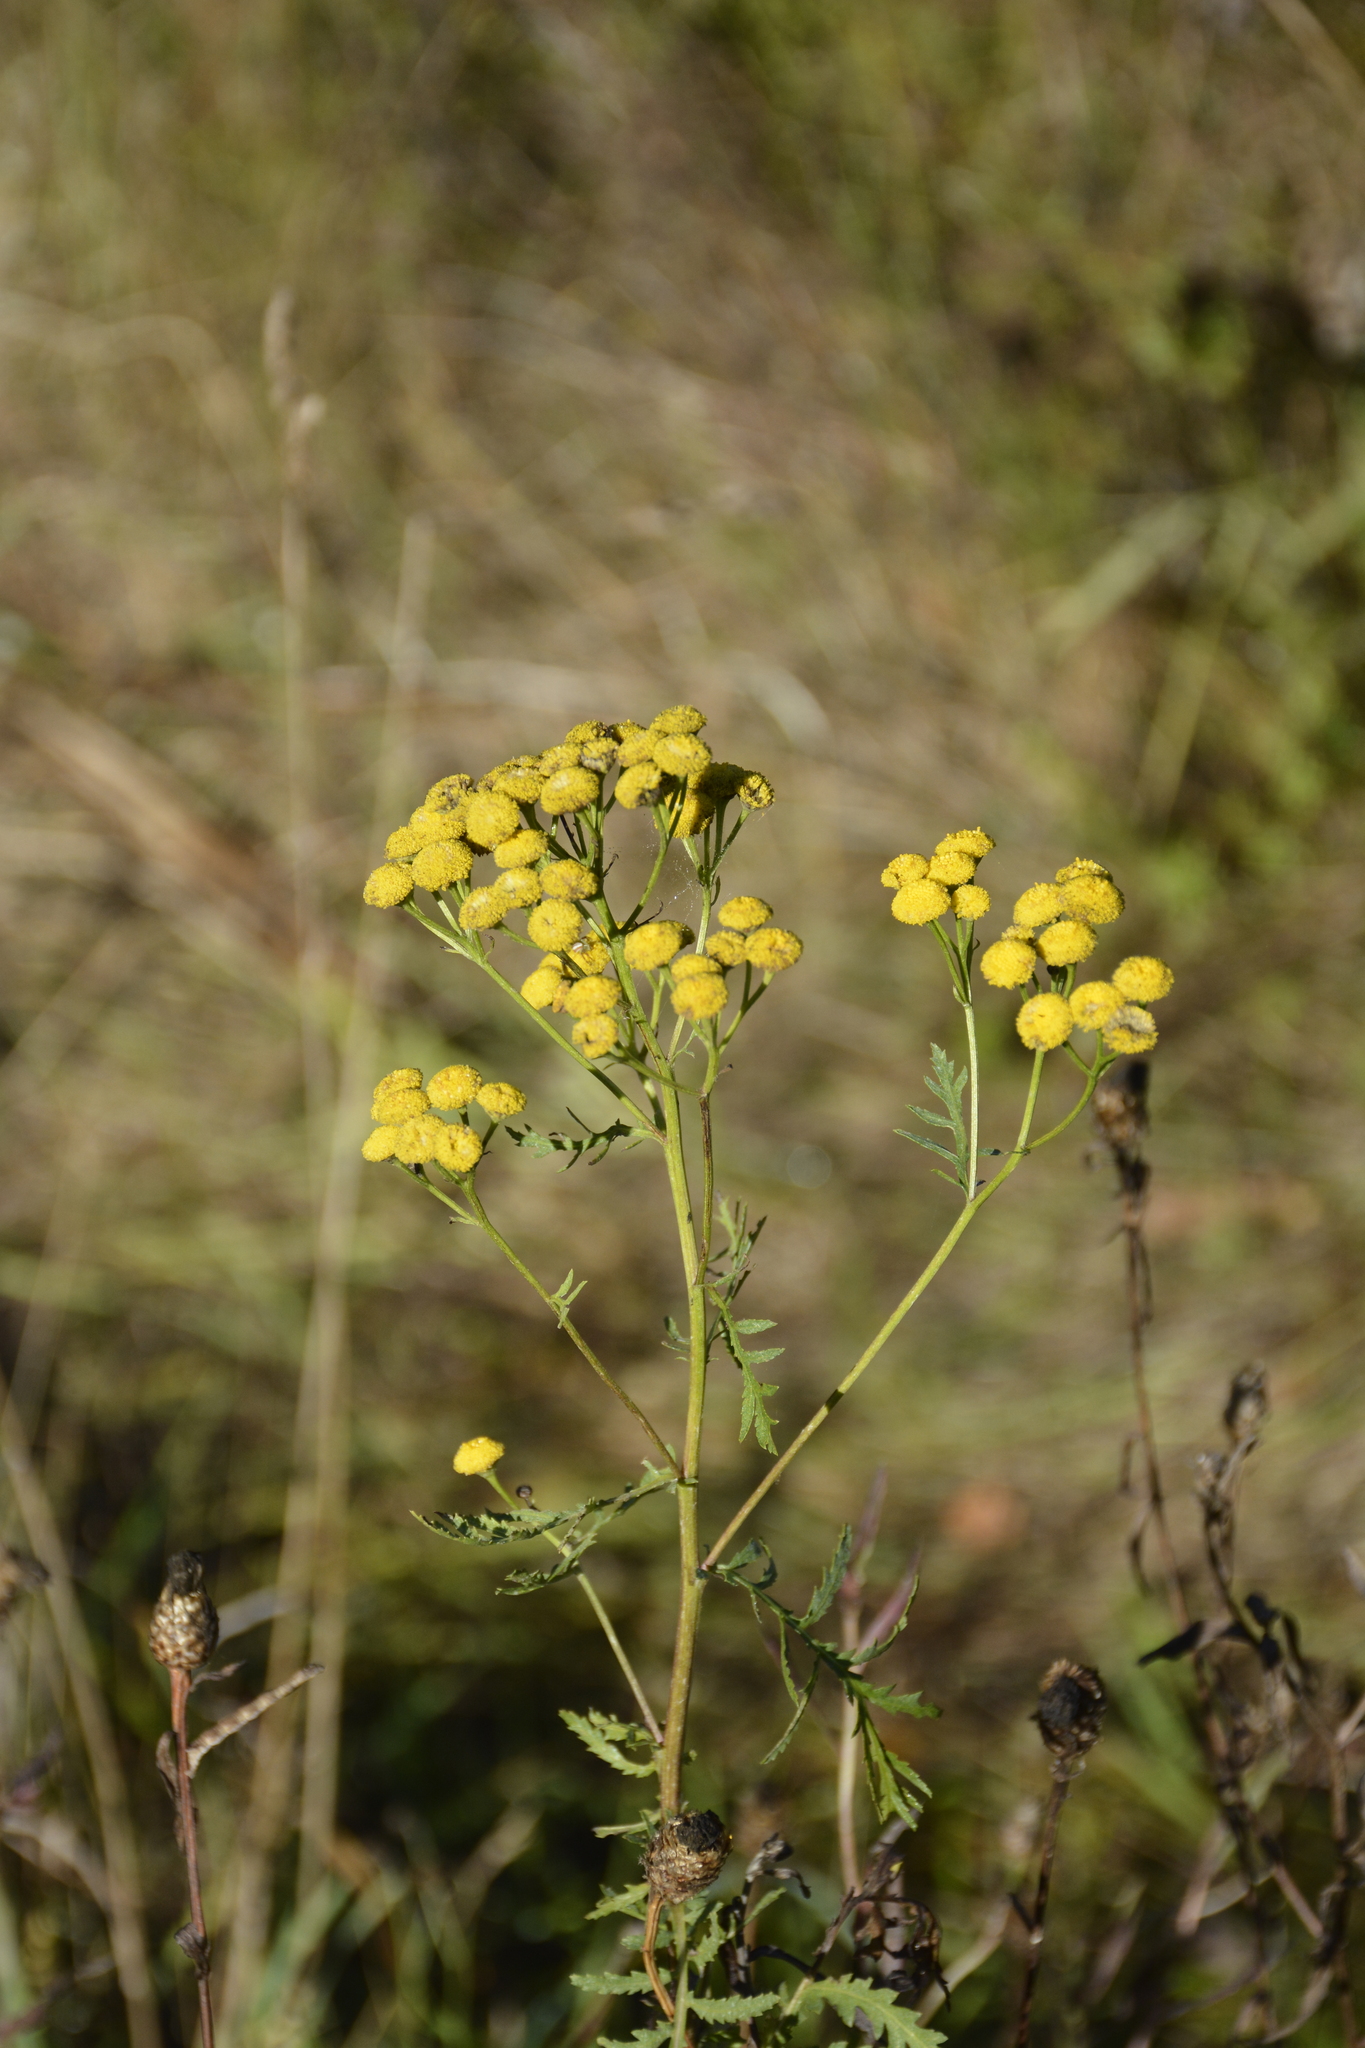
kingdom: Plantae
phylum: Tracheophyta
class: Magnoliopsida
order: Asterales
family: Asteraceae
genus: Tanacetum
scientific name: Tanacetum vulgare
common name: Common tansy
